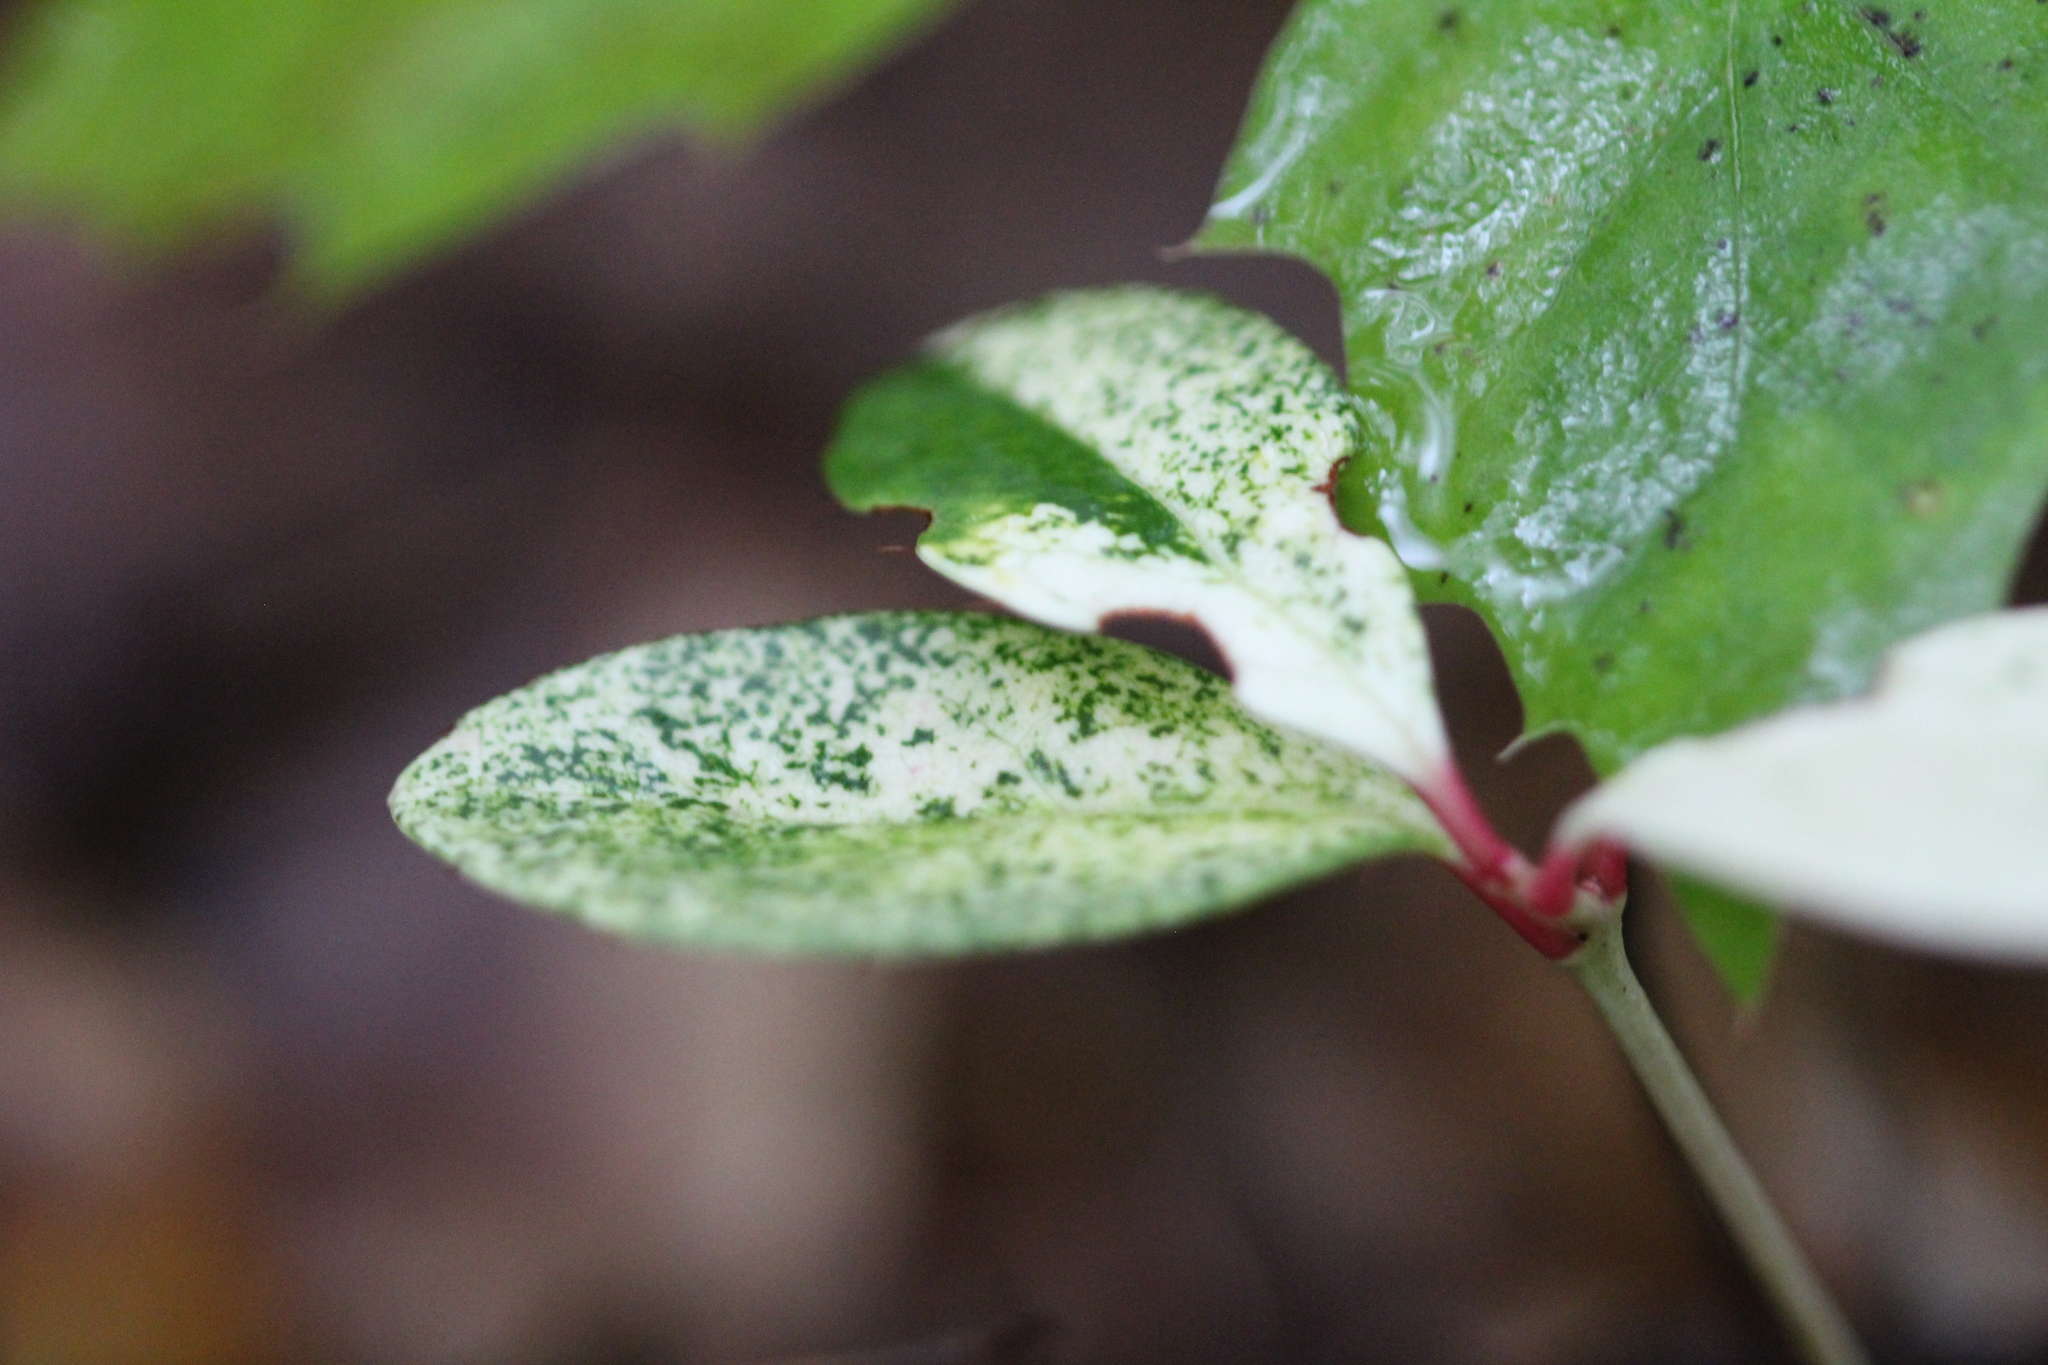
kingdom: Plantae
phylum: Tracheophyta
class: Magnoliopsida
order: Ericales
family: Ericaceae
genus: Gaultheria
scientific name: Gaultheria procumbens
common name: Checkerberry
